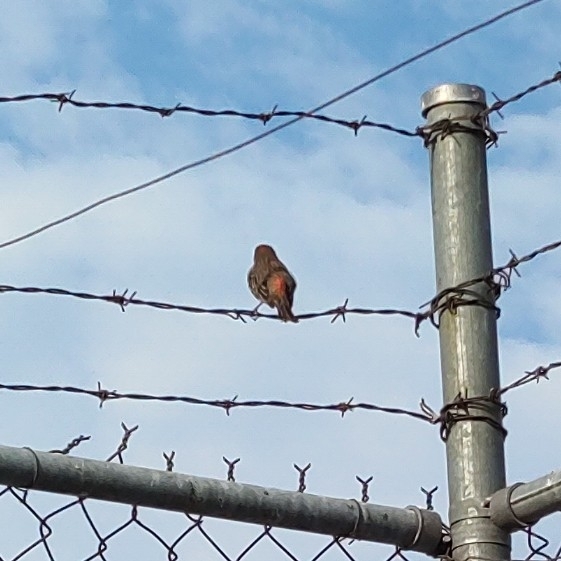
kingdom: Animalia
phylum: Chordata
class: Aves
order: Passeriformes
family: Fringillidae
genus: Haemorhous
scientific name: Haemorhous mexicanus
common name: House finch
